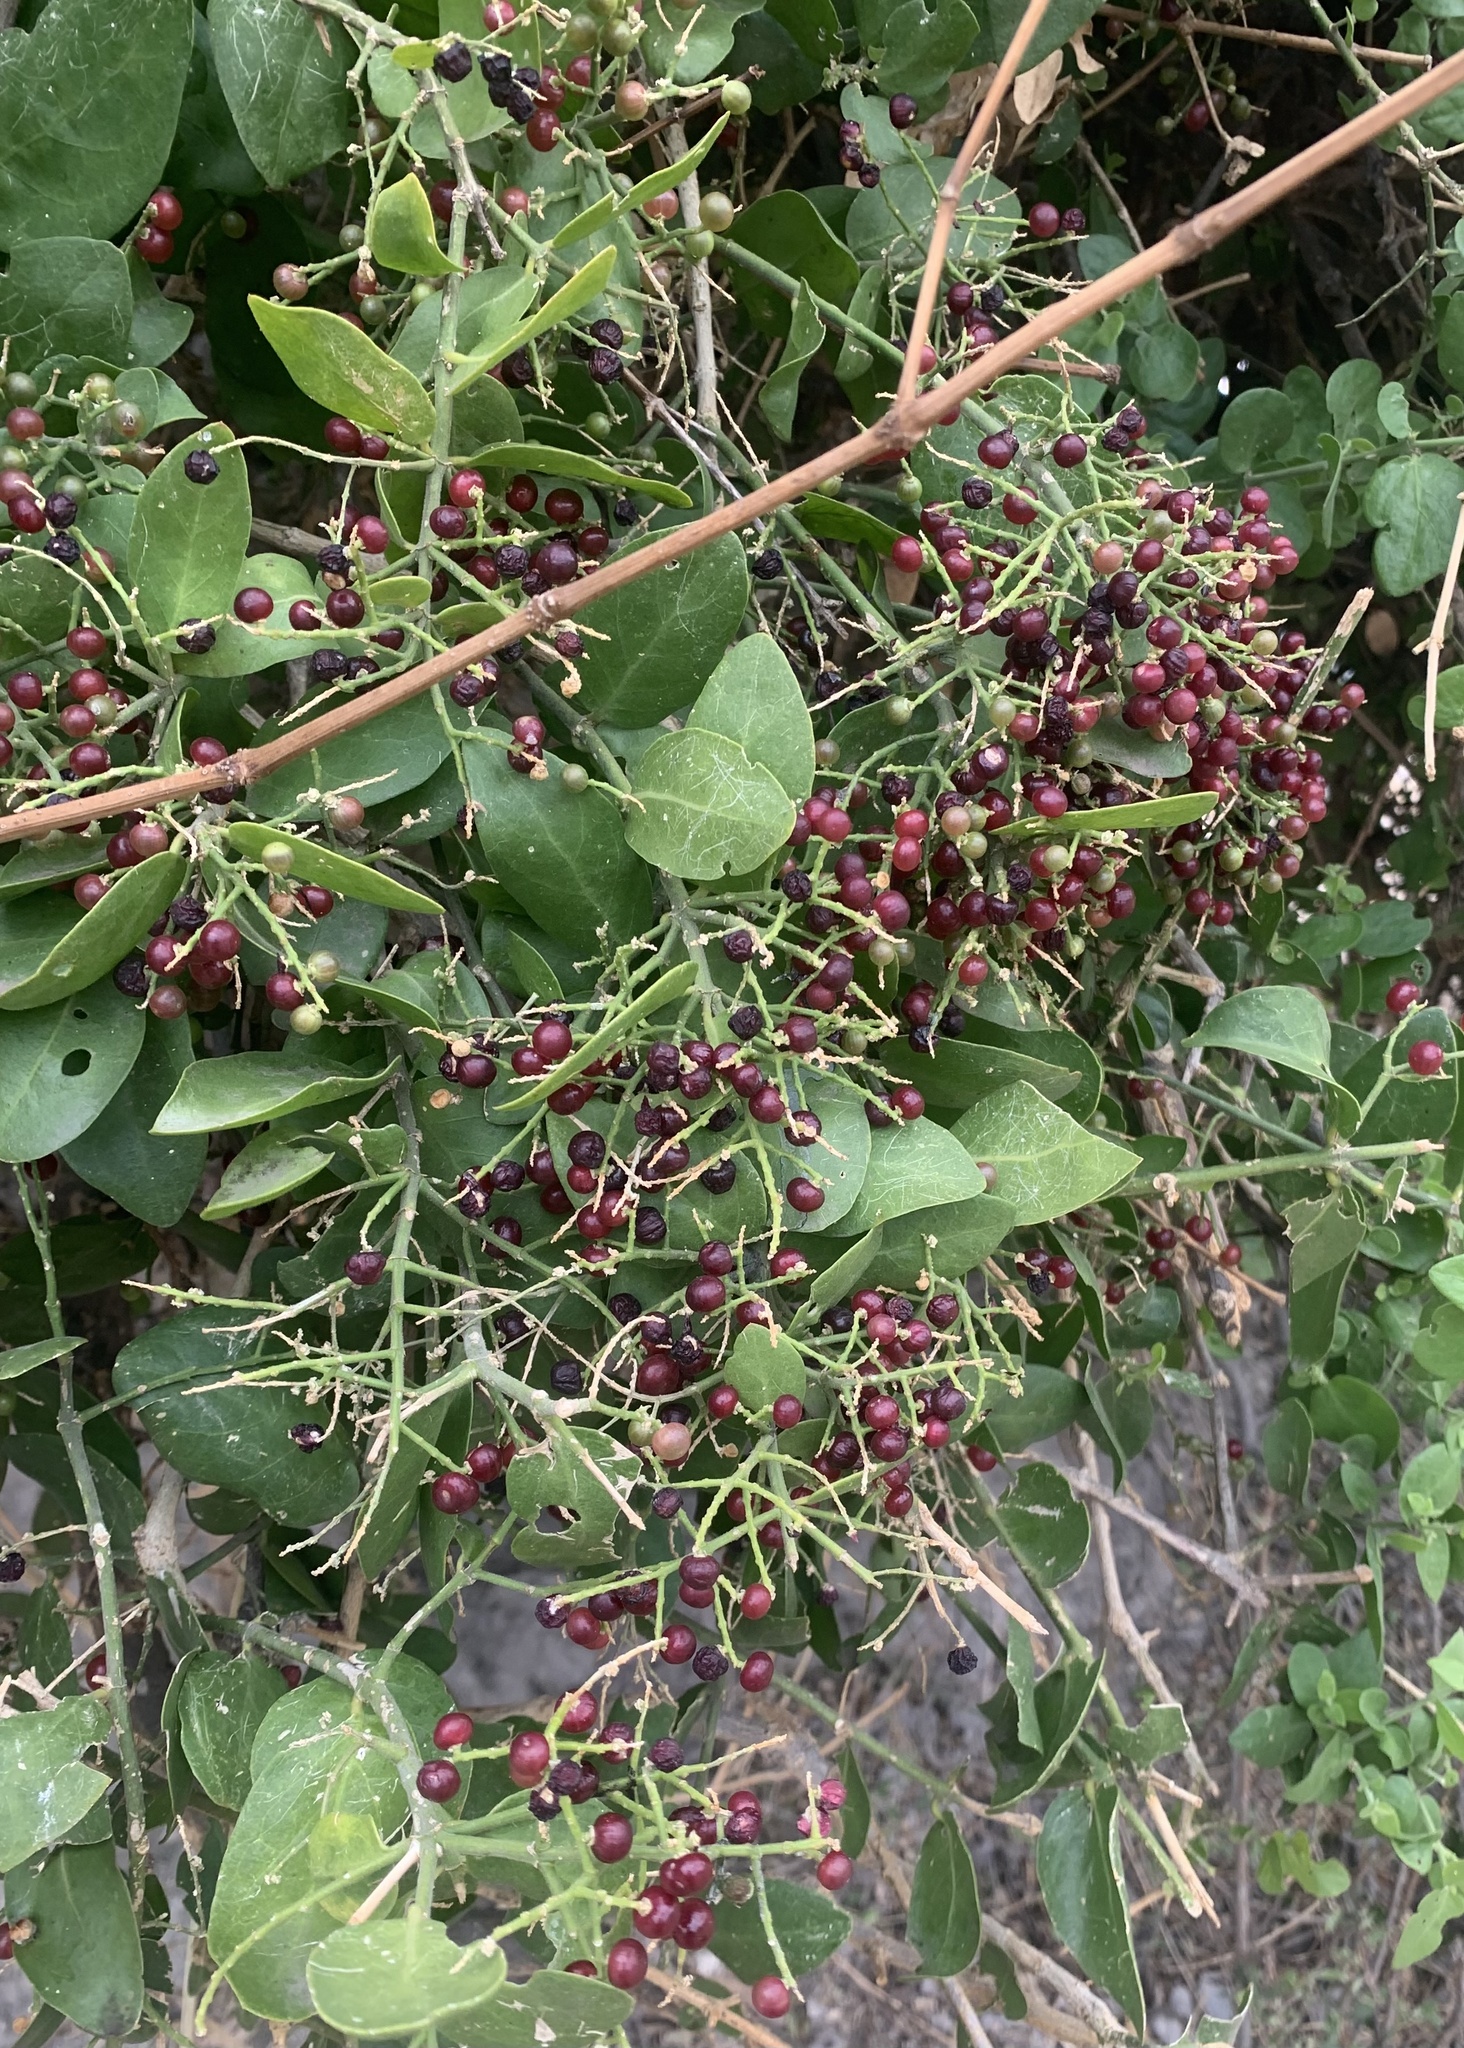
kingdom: Plantae
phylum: Tracheophyta
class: Magnoliopsida
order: Brassicales
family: Salvadoraceae
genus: Salvadora
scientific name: Salvadora persica
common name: Toothbrushtree
